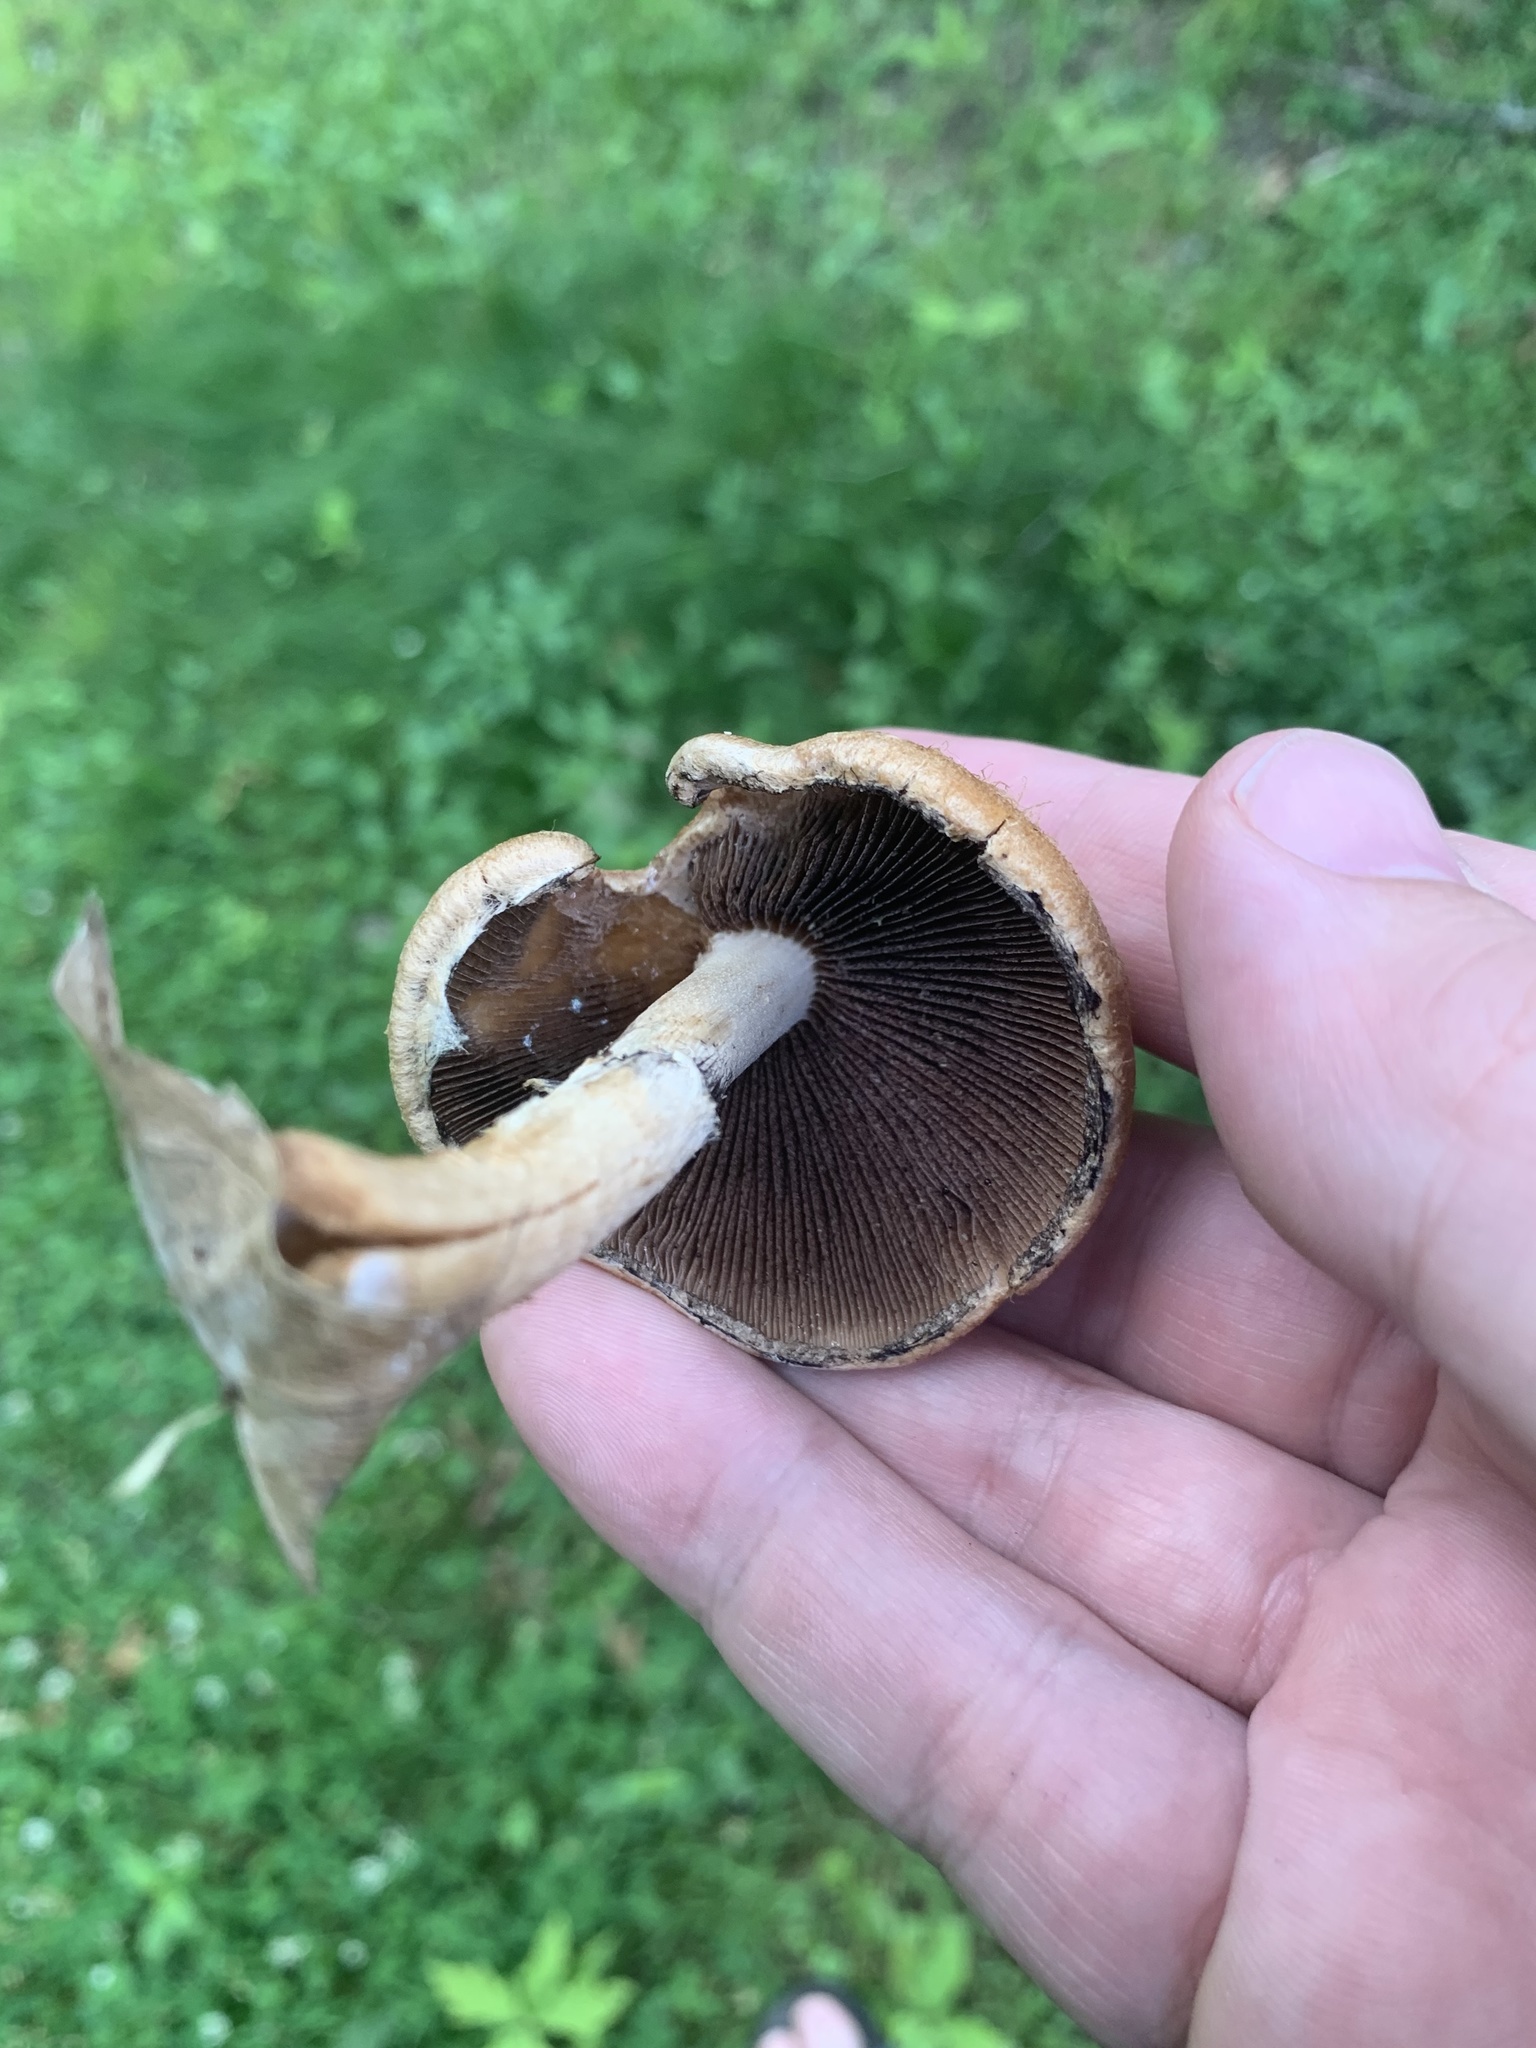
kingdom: Fungi
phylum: Basidiomycota
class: Agaricomycetes
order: Agaricales
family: Psathyrellaceae
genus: Lacrymaria
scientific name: Lacrymaria lacrymabunda
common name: Weeping widow
